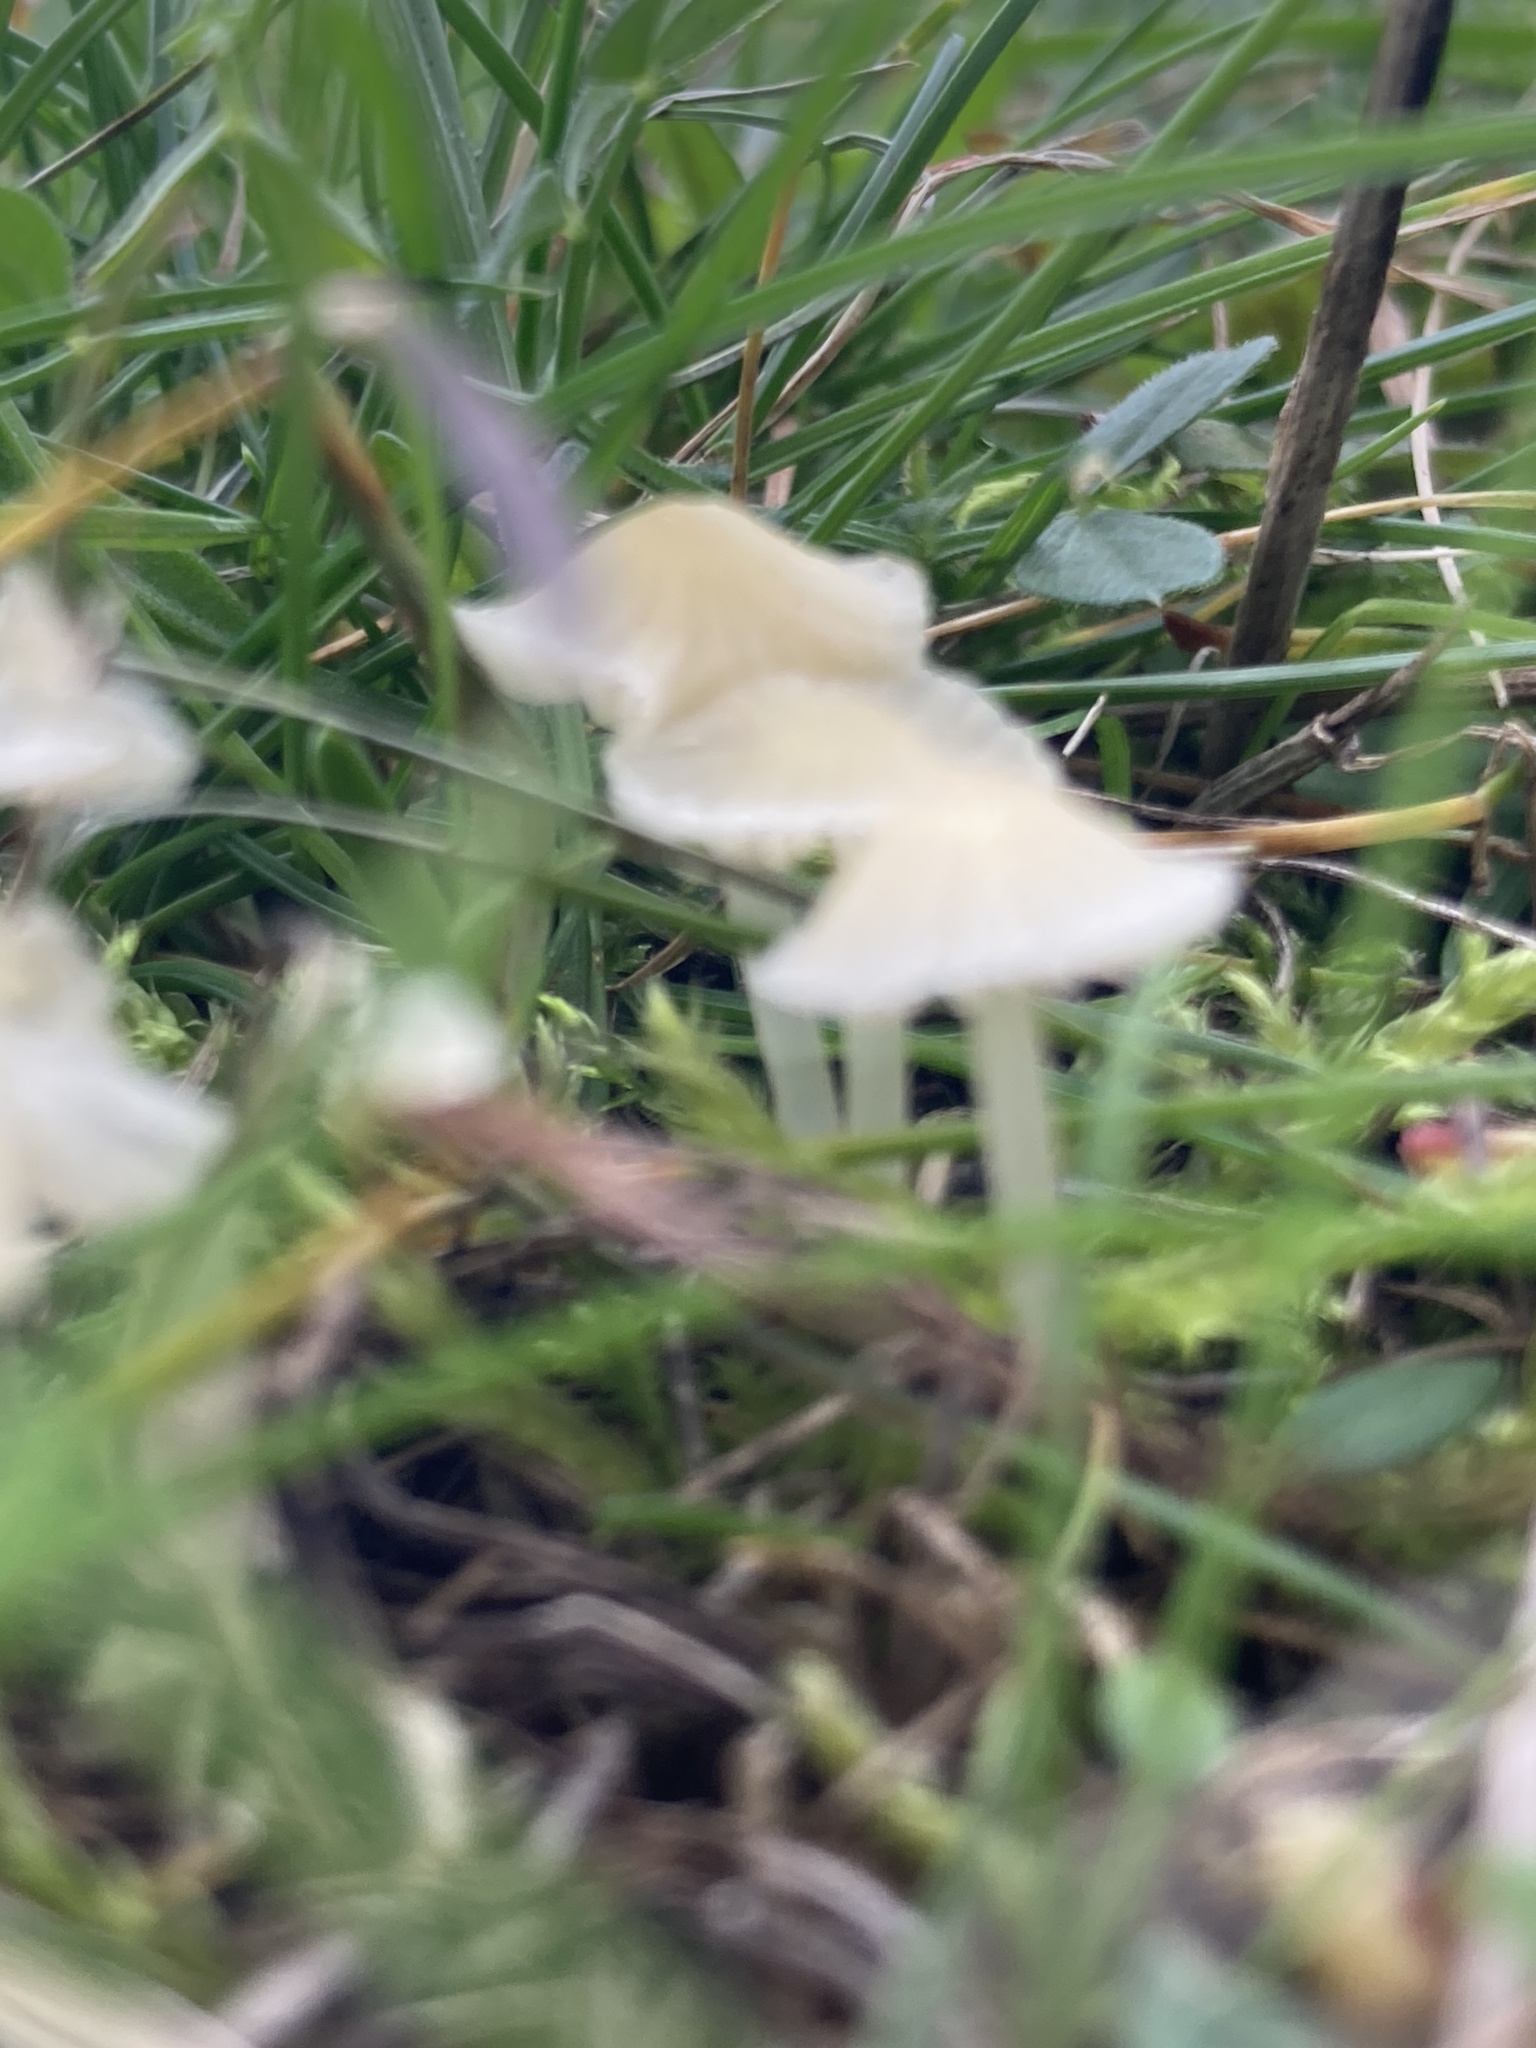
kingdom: Fungi
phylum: Basidiomycota
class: Agaricomycetes
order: Agaricales
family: Mycenaceae
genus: Atheniella
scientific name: Atheniella flavoalba
